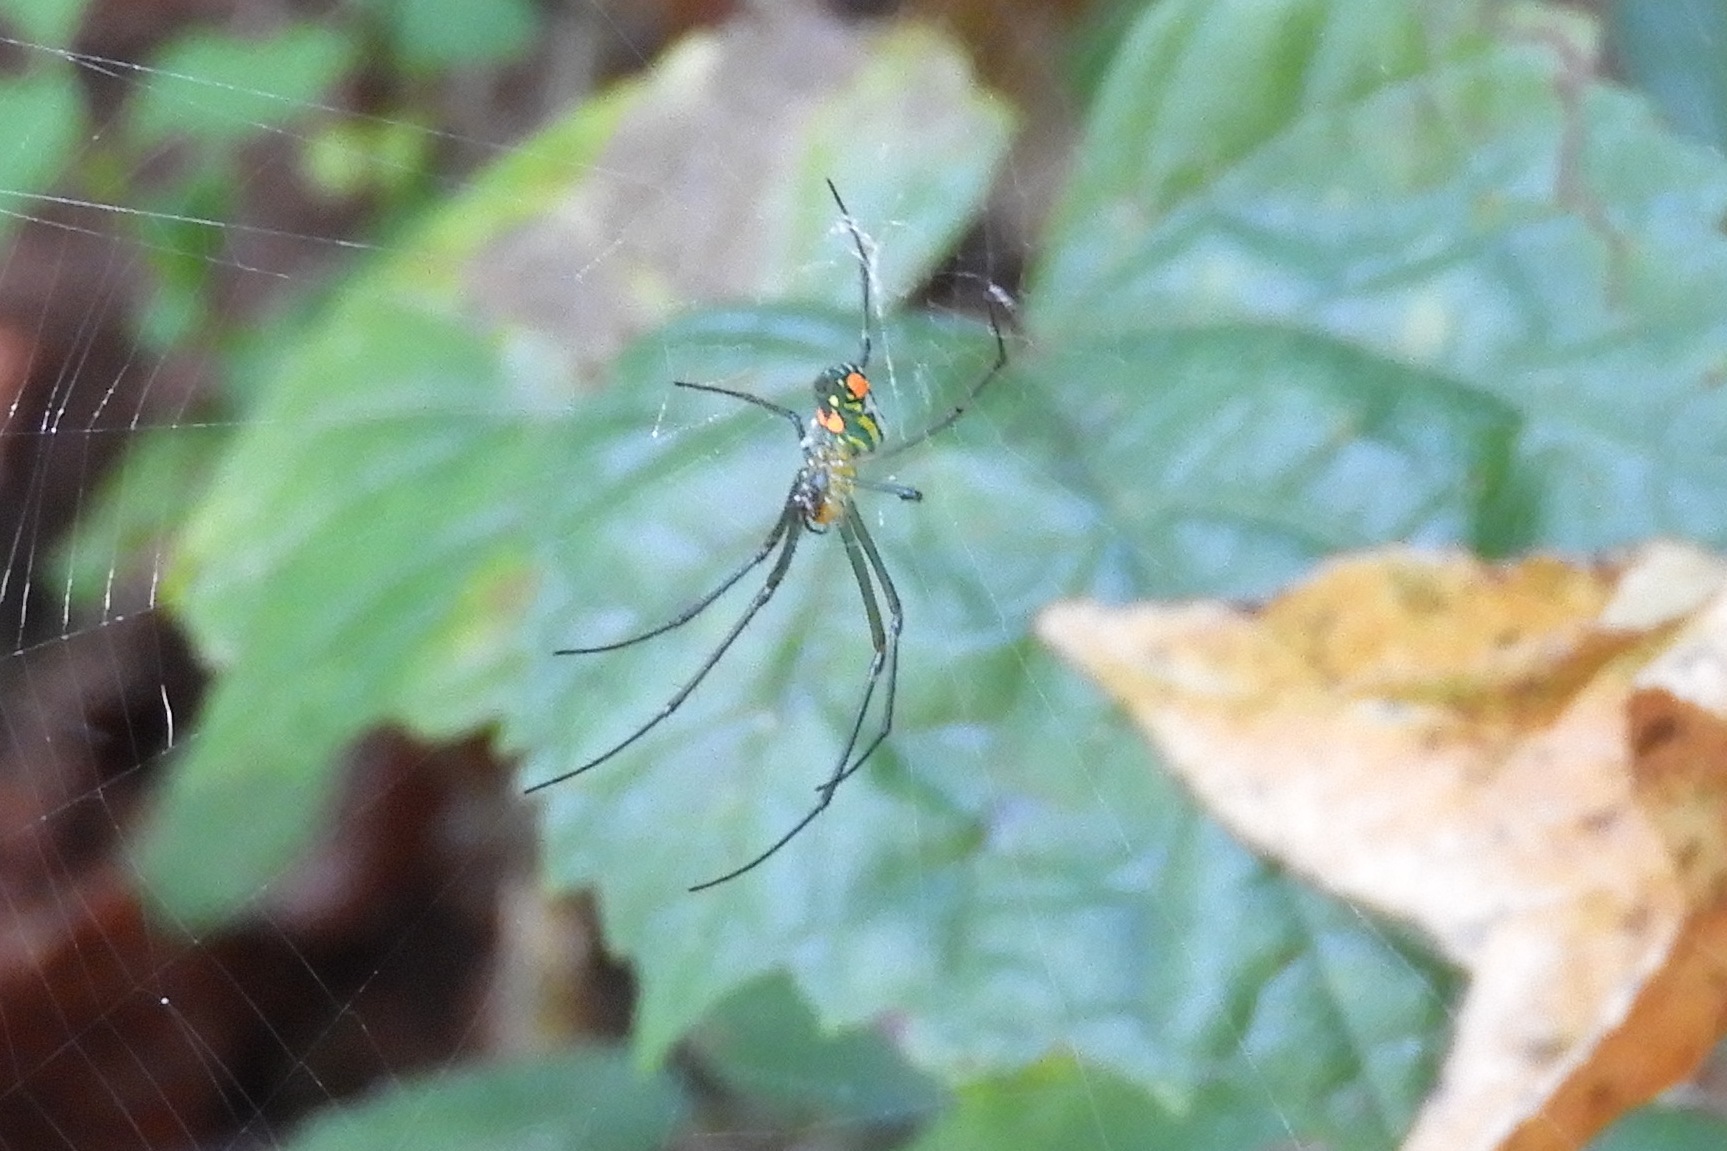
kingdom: Animalia
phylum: Arthropoda
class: Arachnida
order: Araneae
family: Tetragnathidae
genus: Leucauge
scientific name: Leucauge argyrobapta
